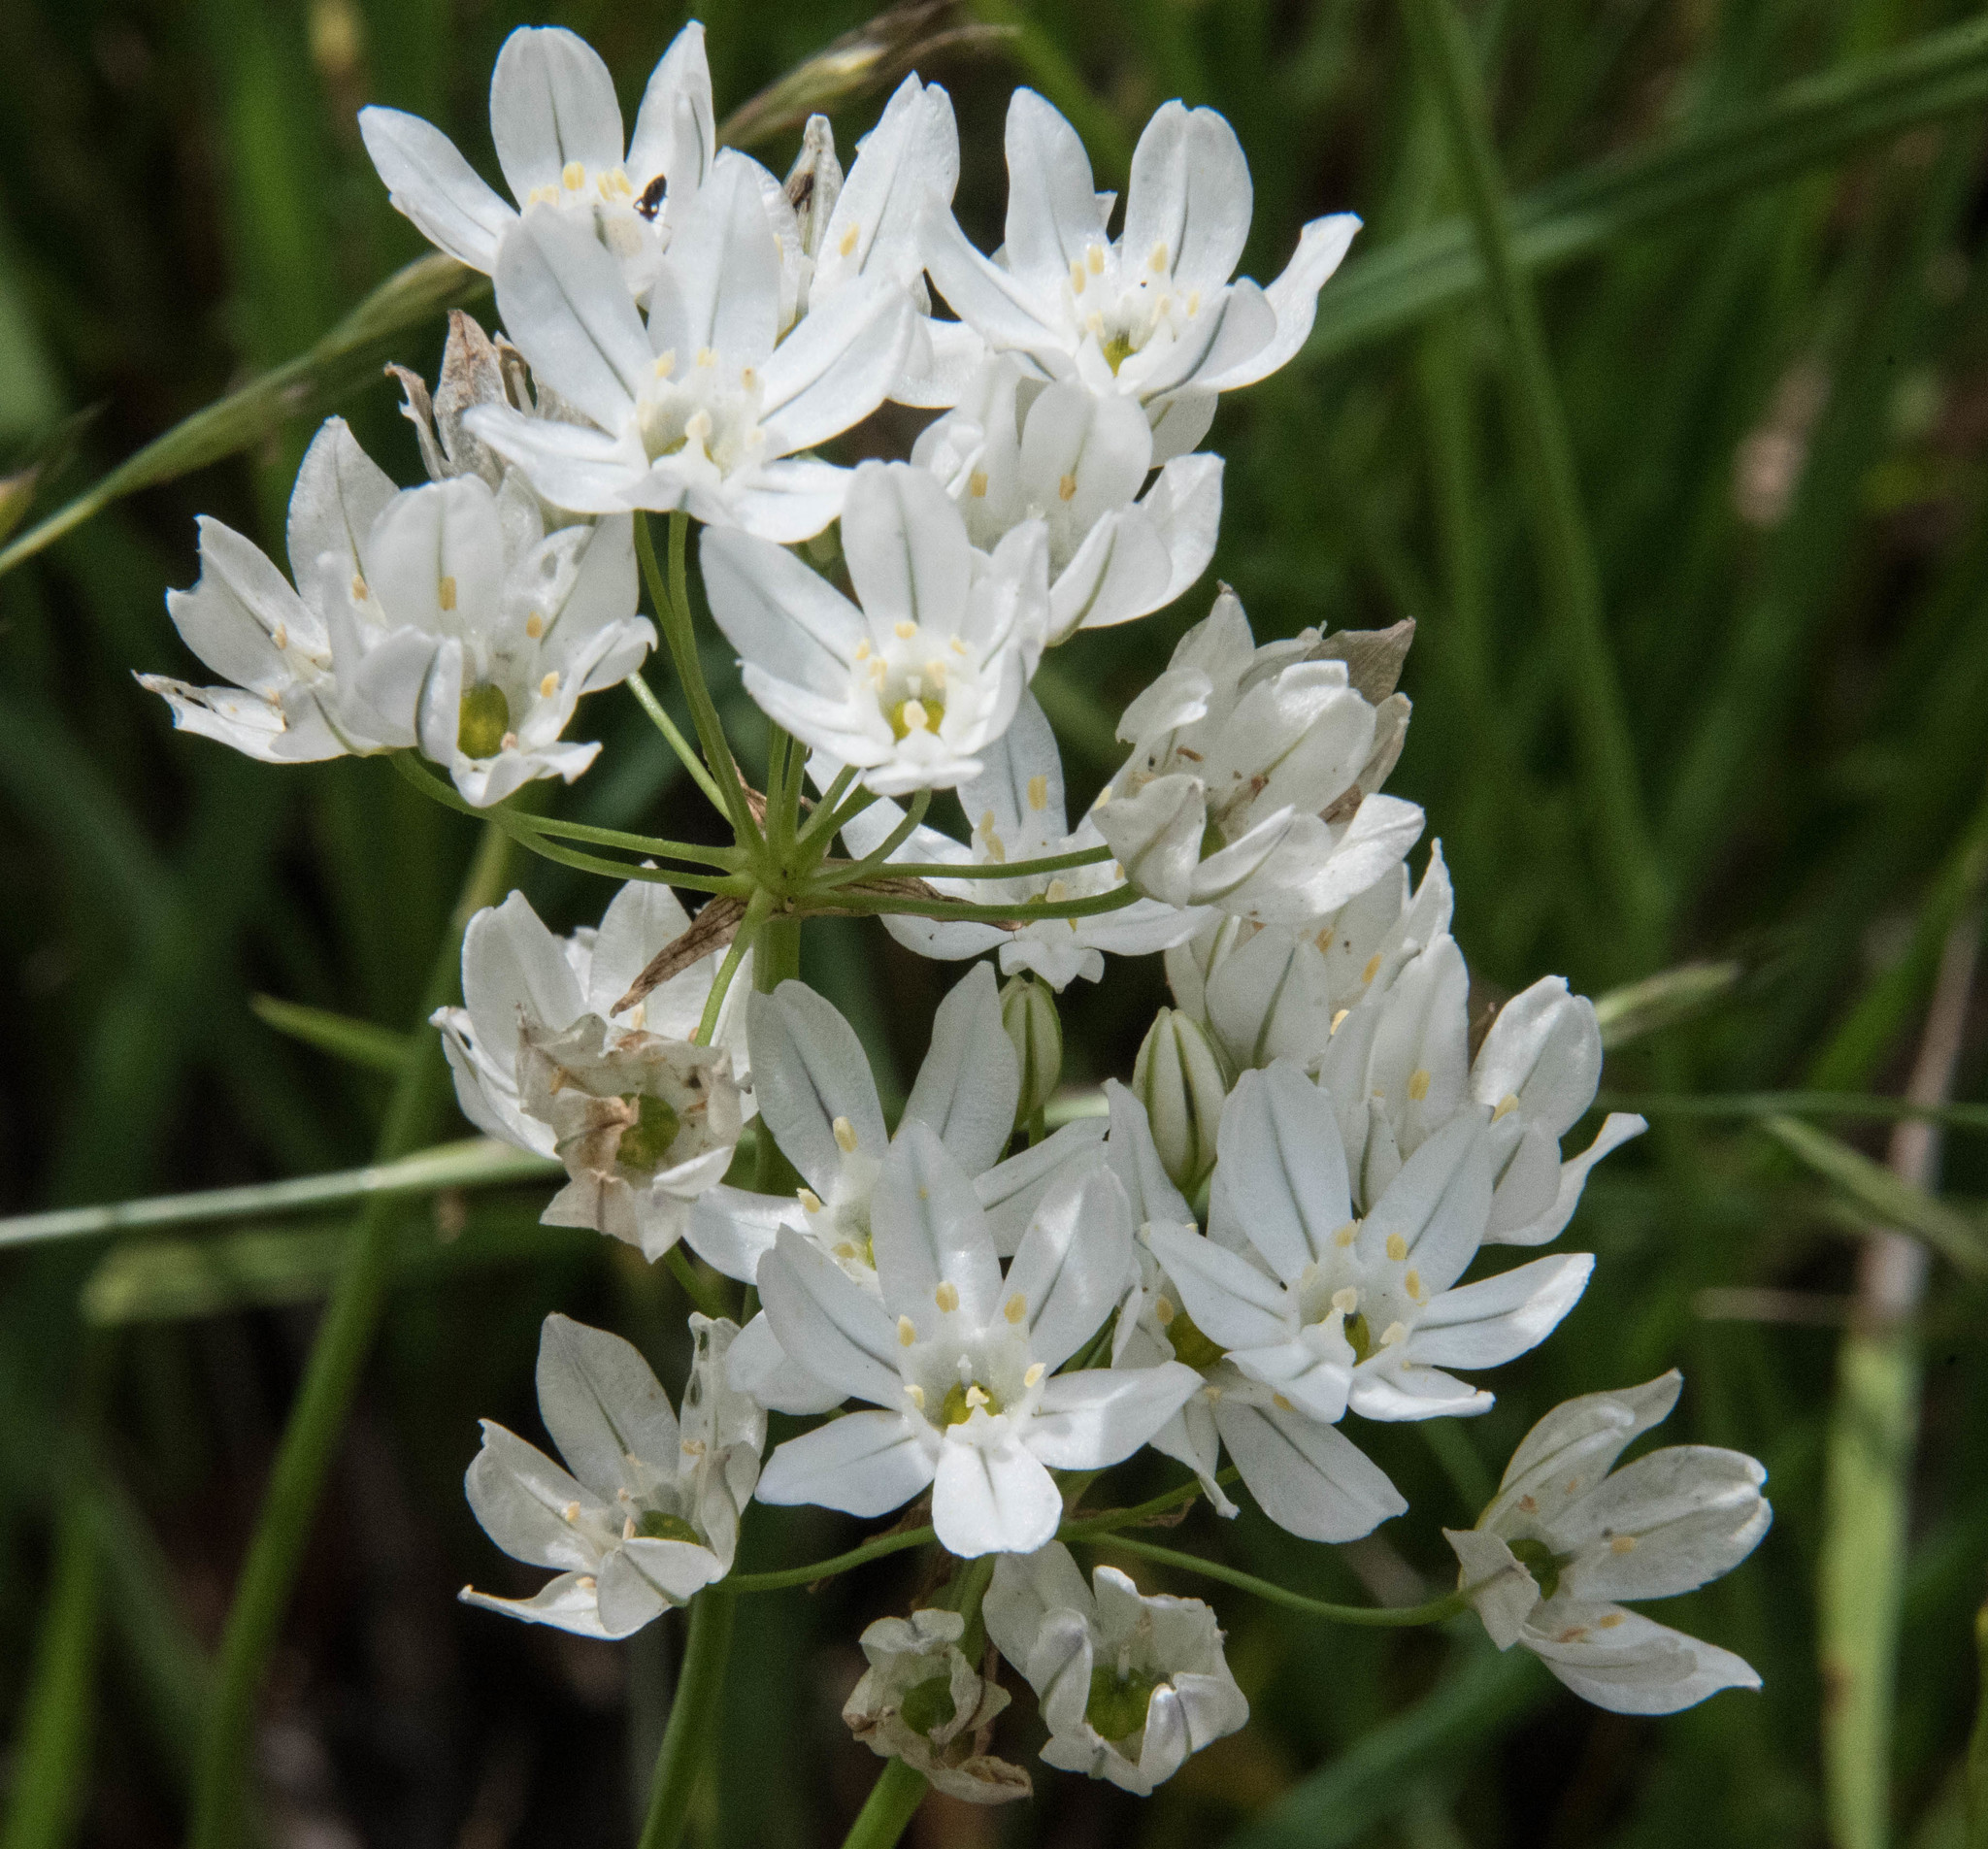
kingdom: Plantae
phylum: Tracheophyta
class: Liliopsida
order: Asparagales
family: Asparagaceae
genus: Triteleia
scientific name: Triteleia hyacinthina
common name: White brodiaea
